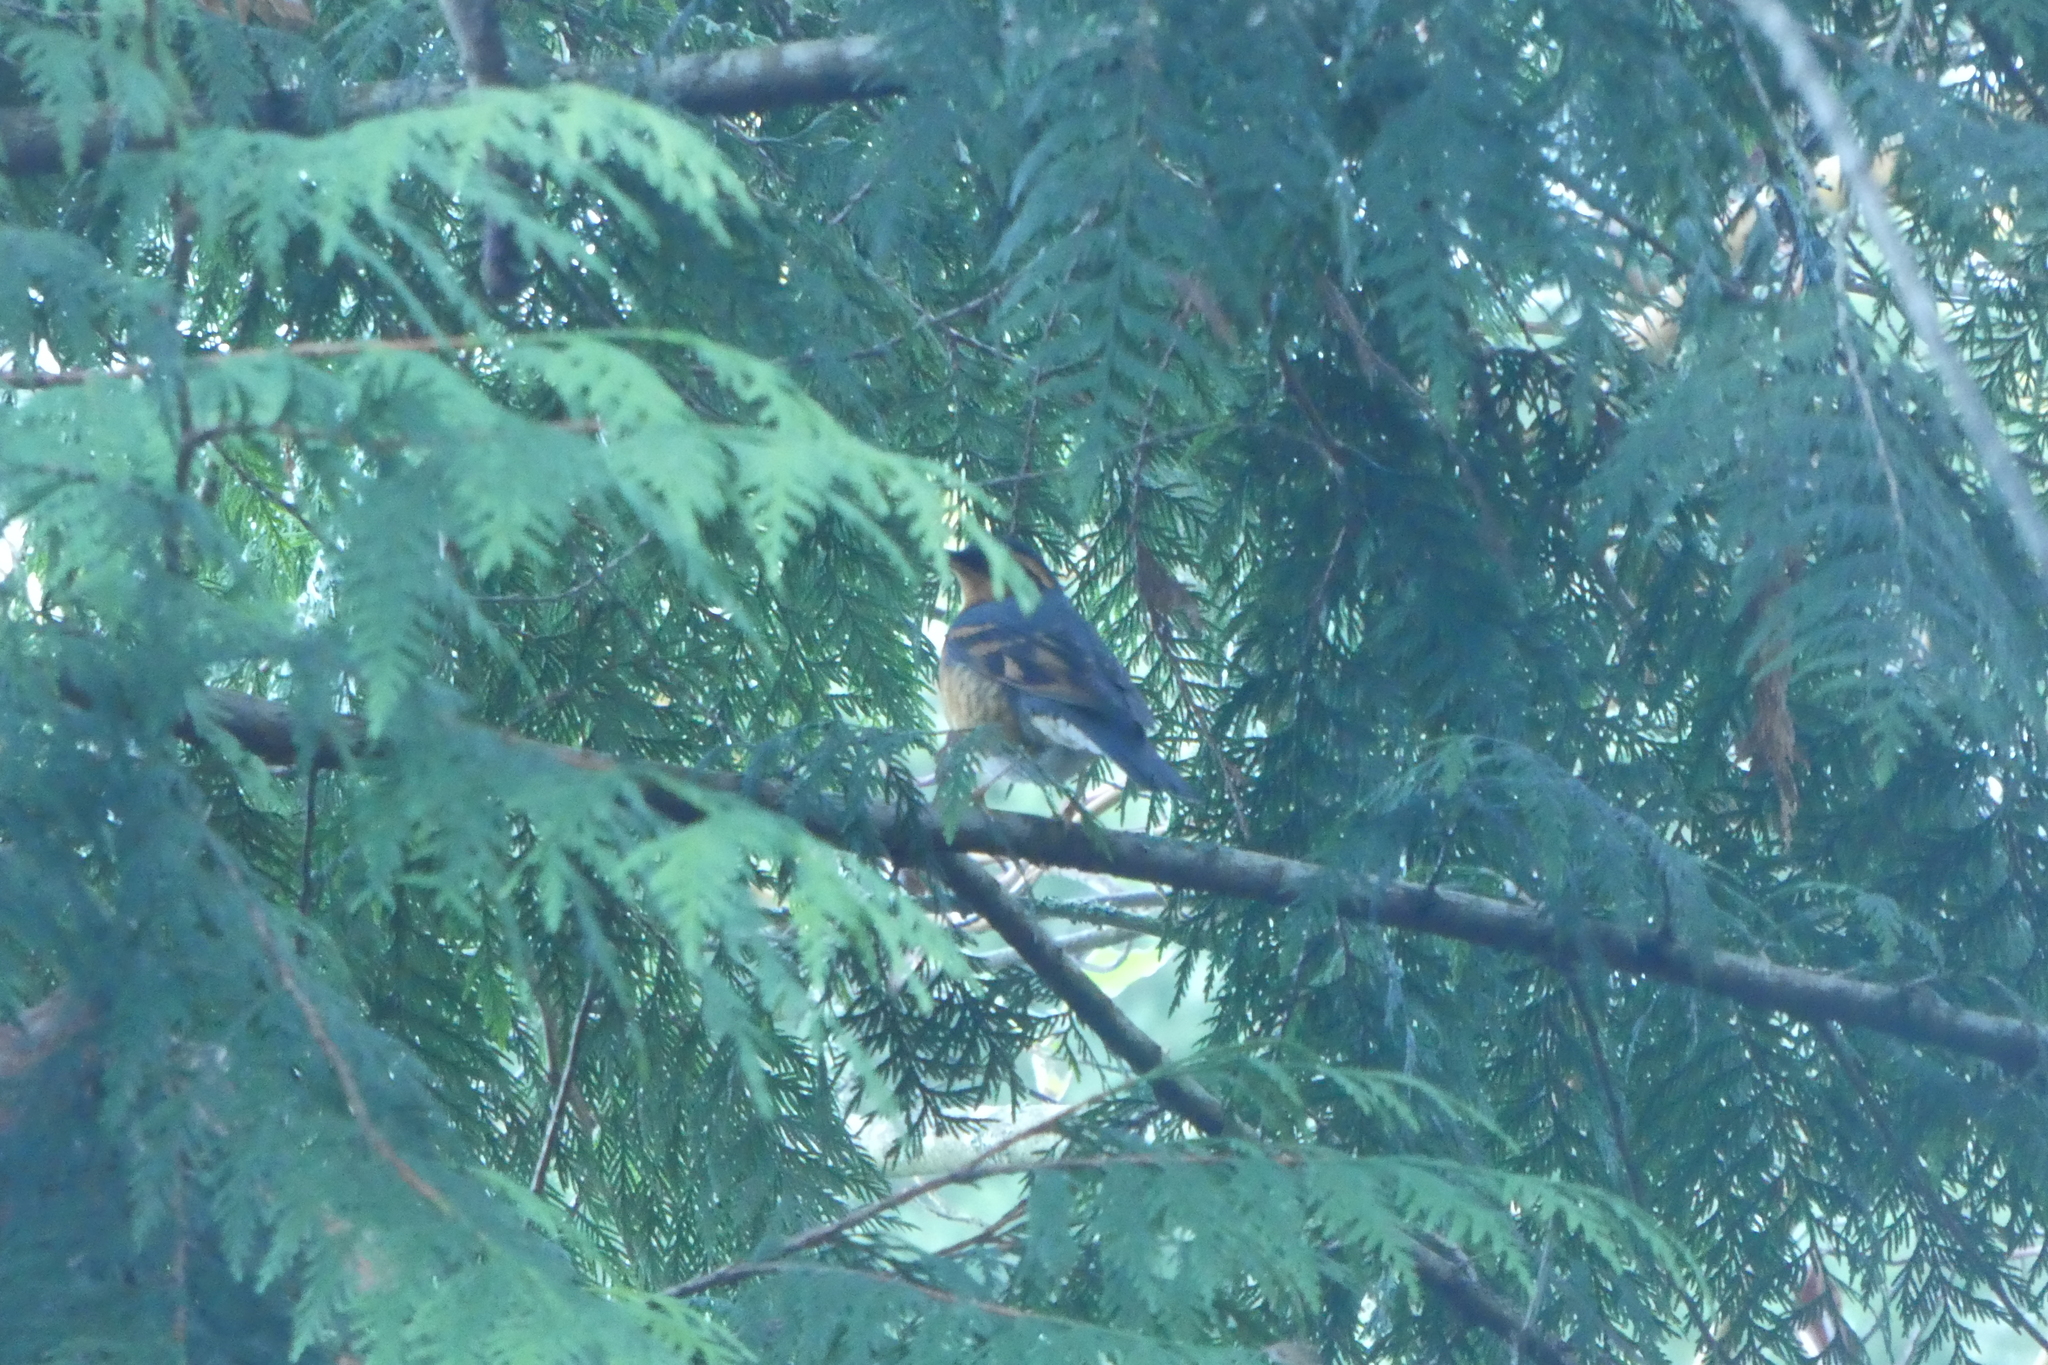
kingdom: Animalia
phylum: Chordata
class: Aves
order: Passeriformes
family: Turdidae
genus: Ixoreus
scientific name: Ixoreus naevius
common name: Varied thrush
